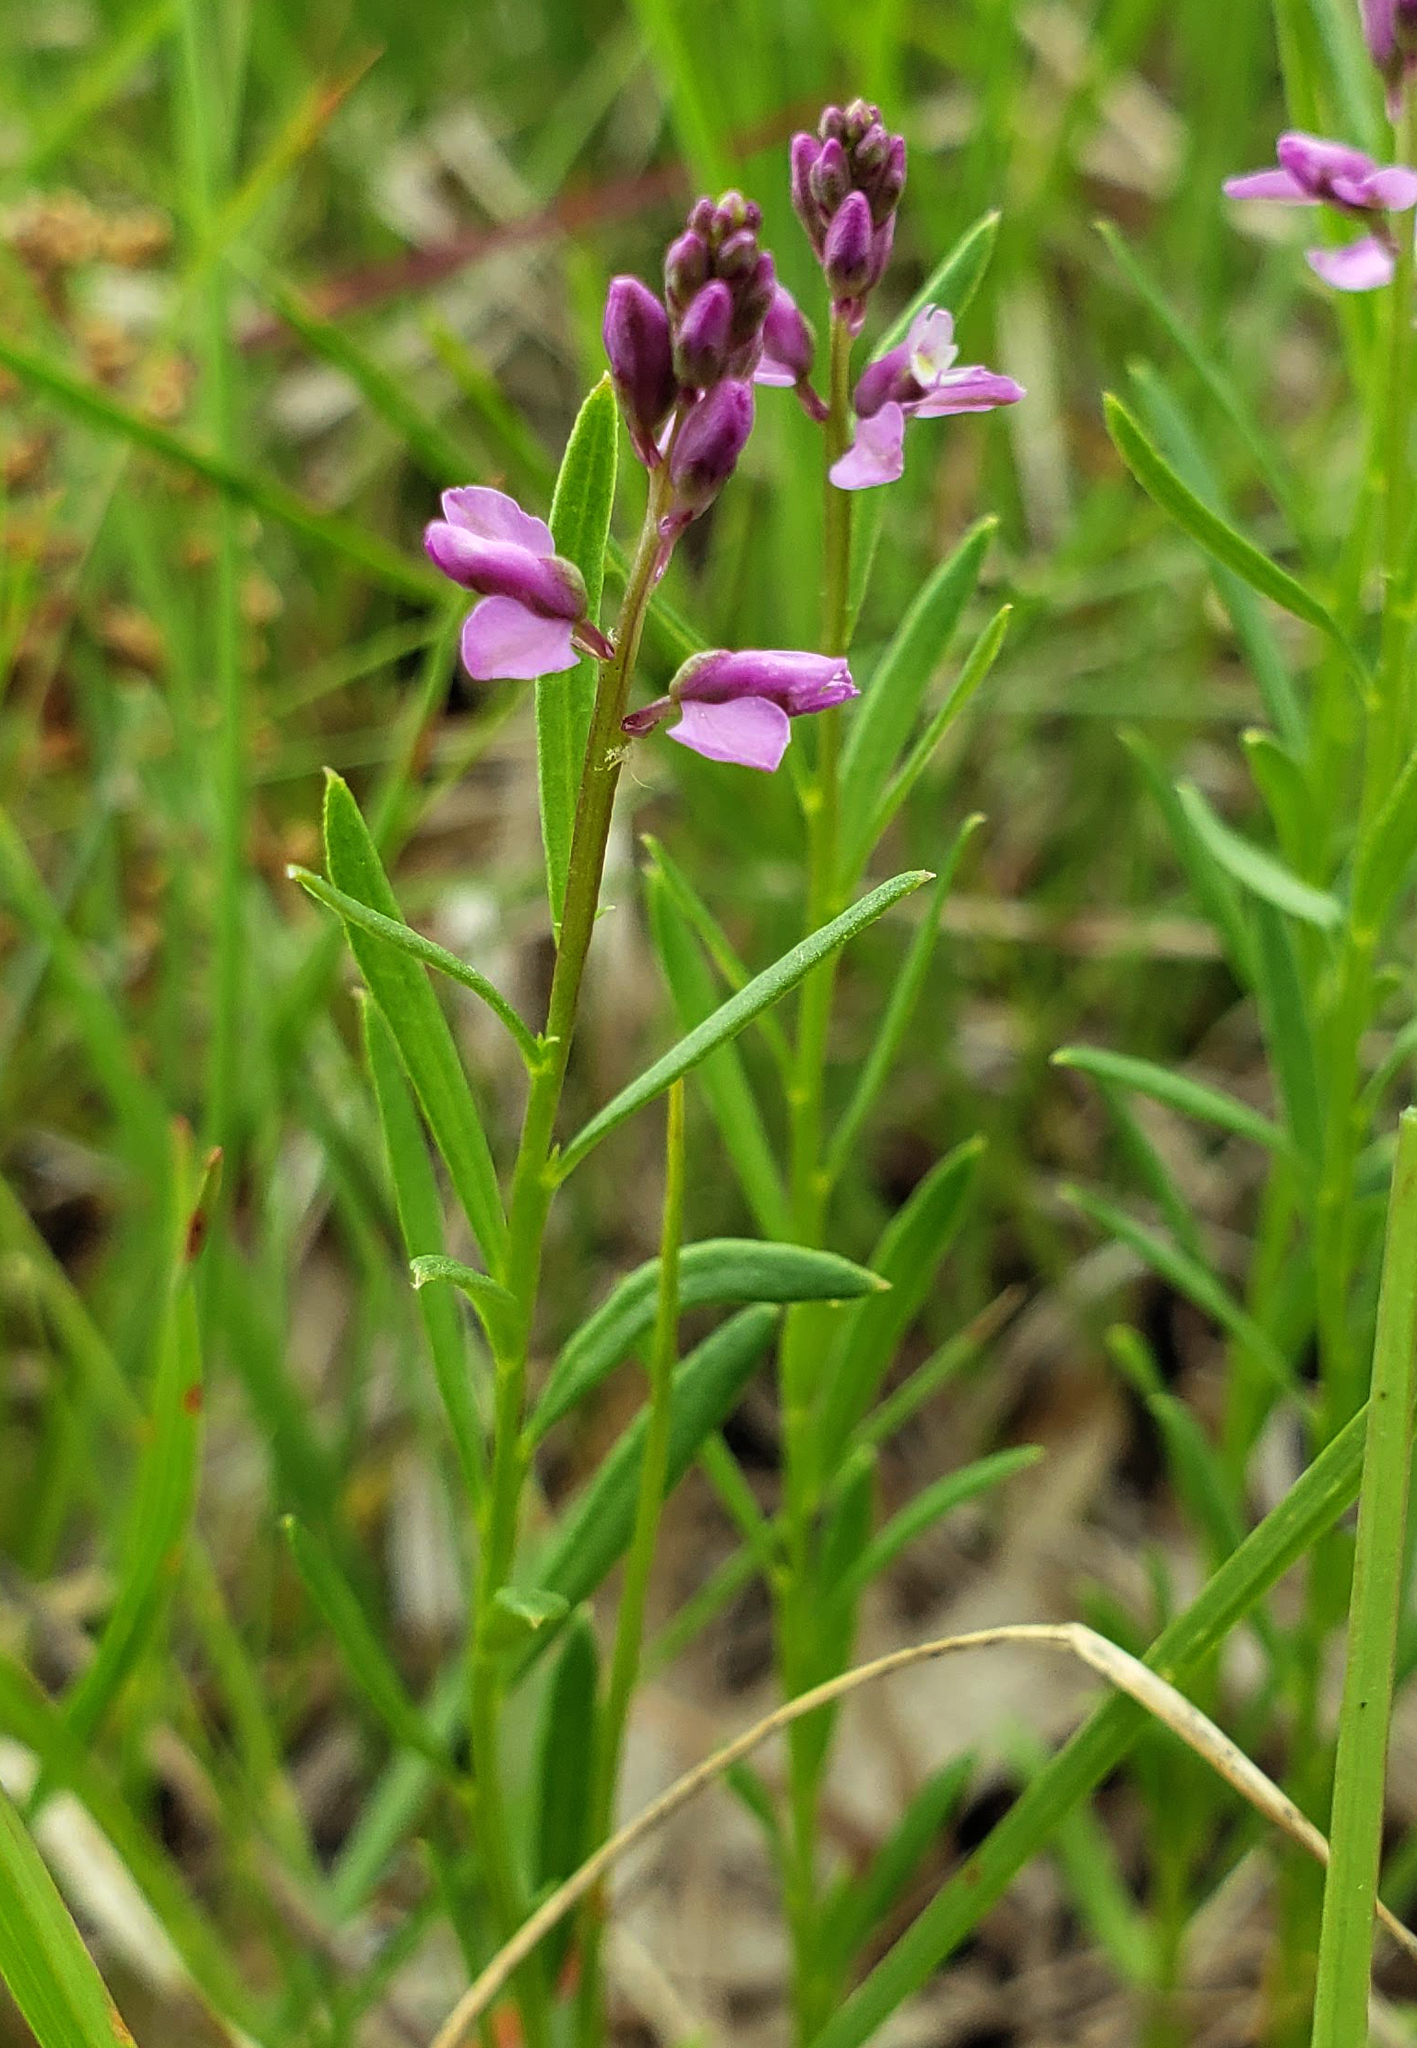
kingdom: Plantae
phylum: Tracheophyta
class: Magnoliopsida
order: Fabales
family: Polygalaceae
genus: Polygala
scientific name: Polygala polygama
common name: Bitter milkwort
